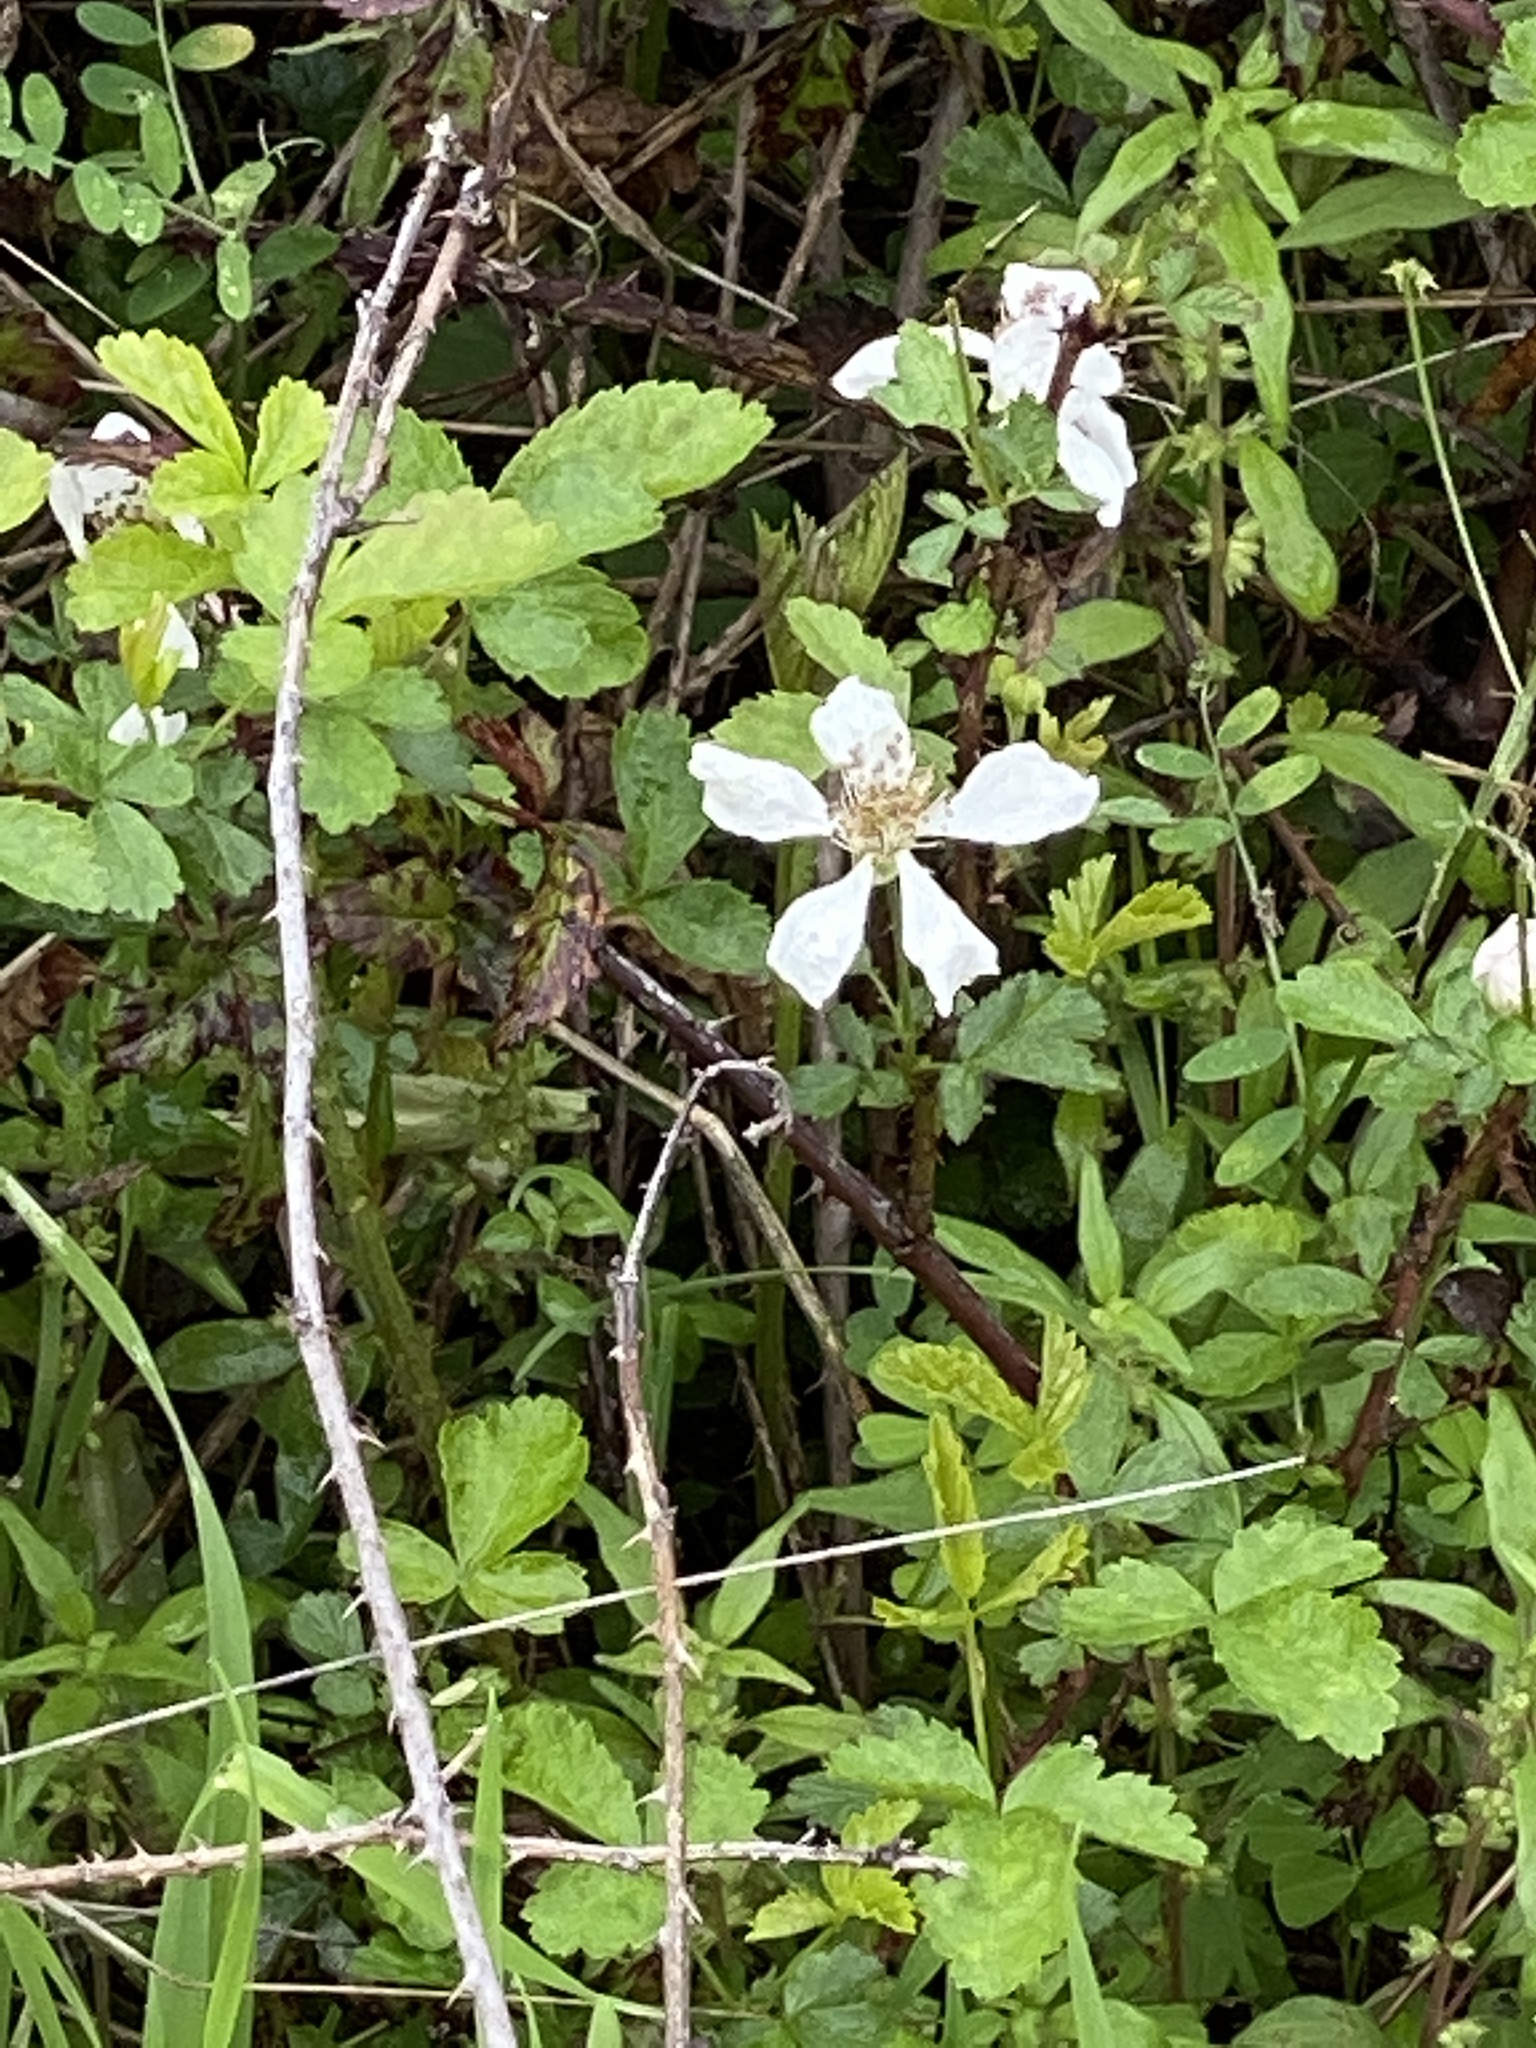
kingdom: Plantae
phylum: Tracheophyta
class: Magnoliopsida
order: Rosales
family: Rosaceae
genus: Rubus
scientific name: Rubus trivialis
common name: Southern dewberry
